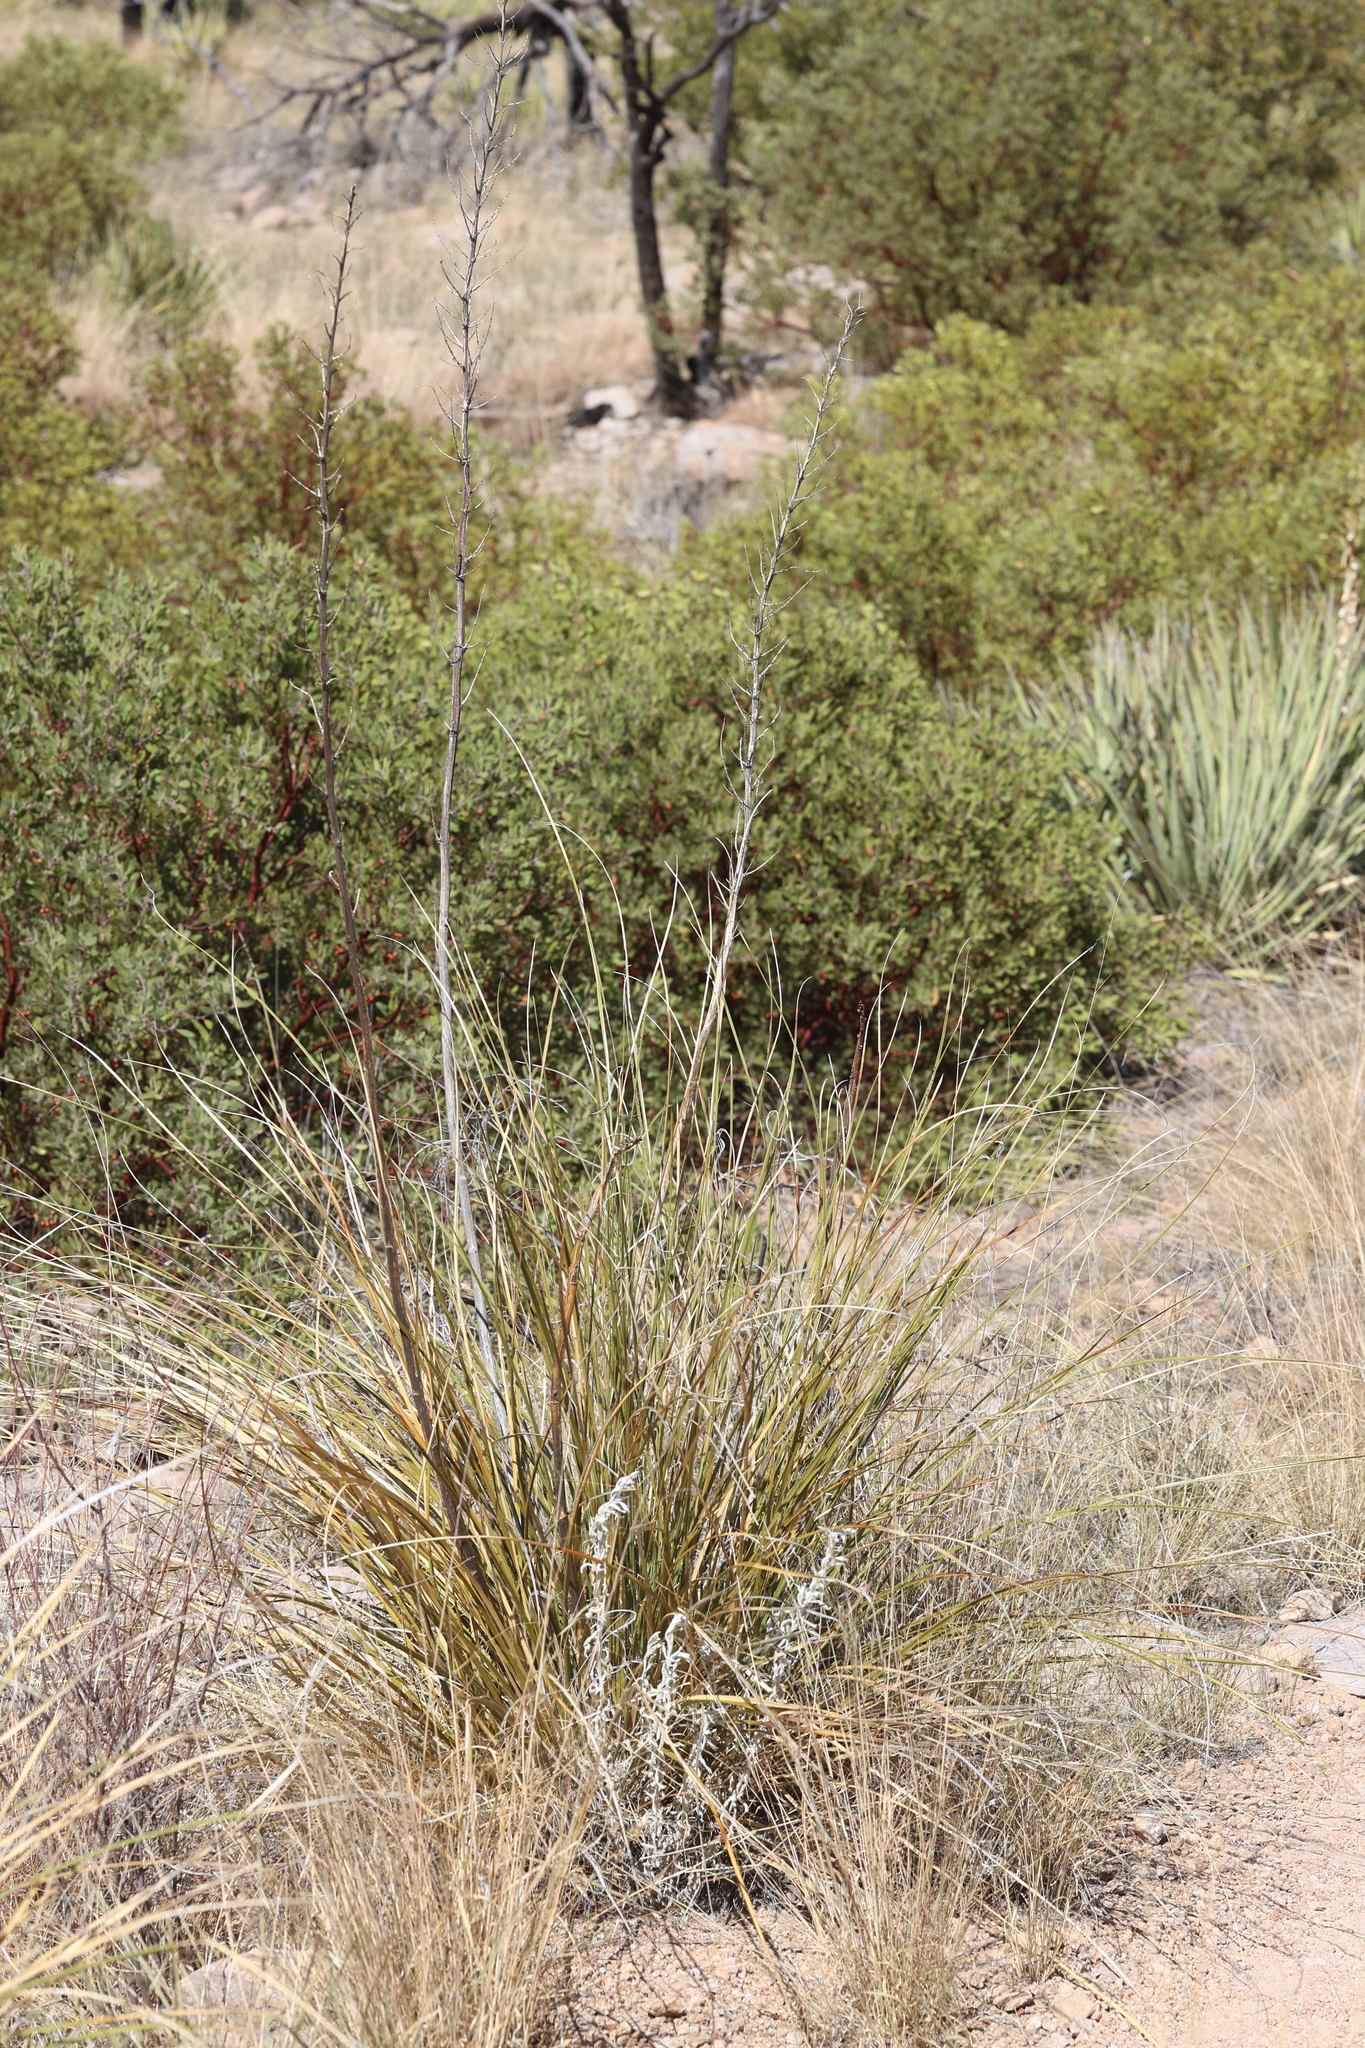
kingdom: Plantae
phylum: Tracheophyta
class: Liliopsida
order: Asparagales
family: Asparagaceae
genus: Nolina
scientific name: Nolina microcarpa
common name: Bear-grass
